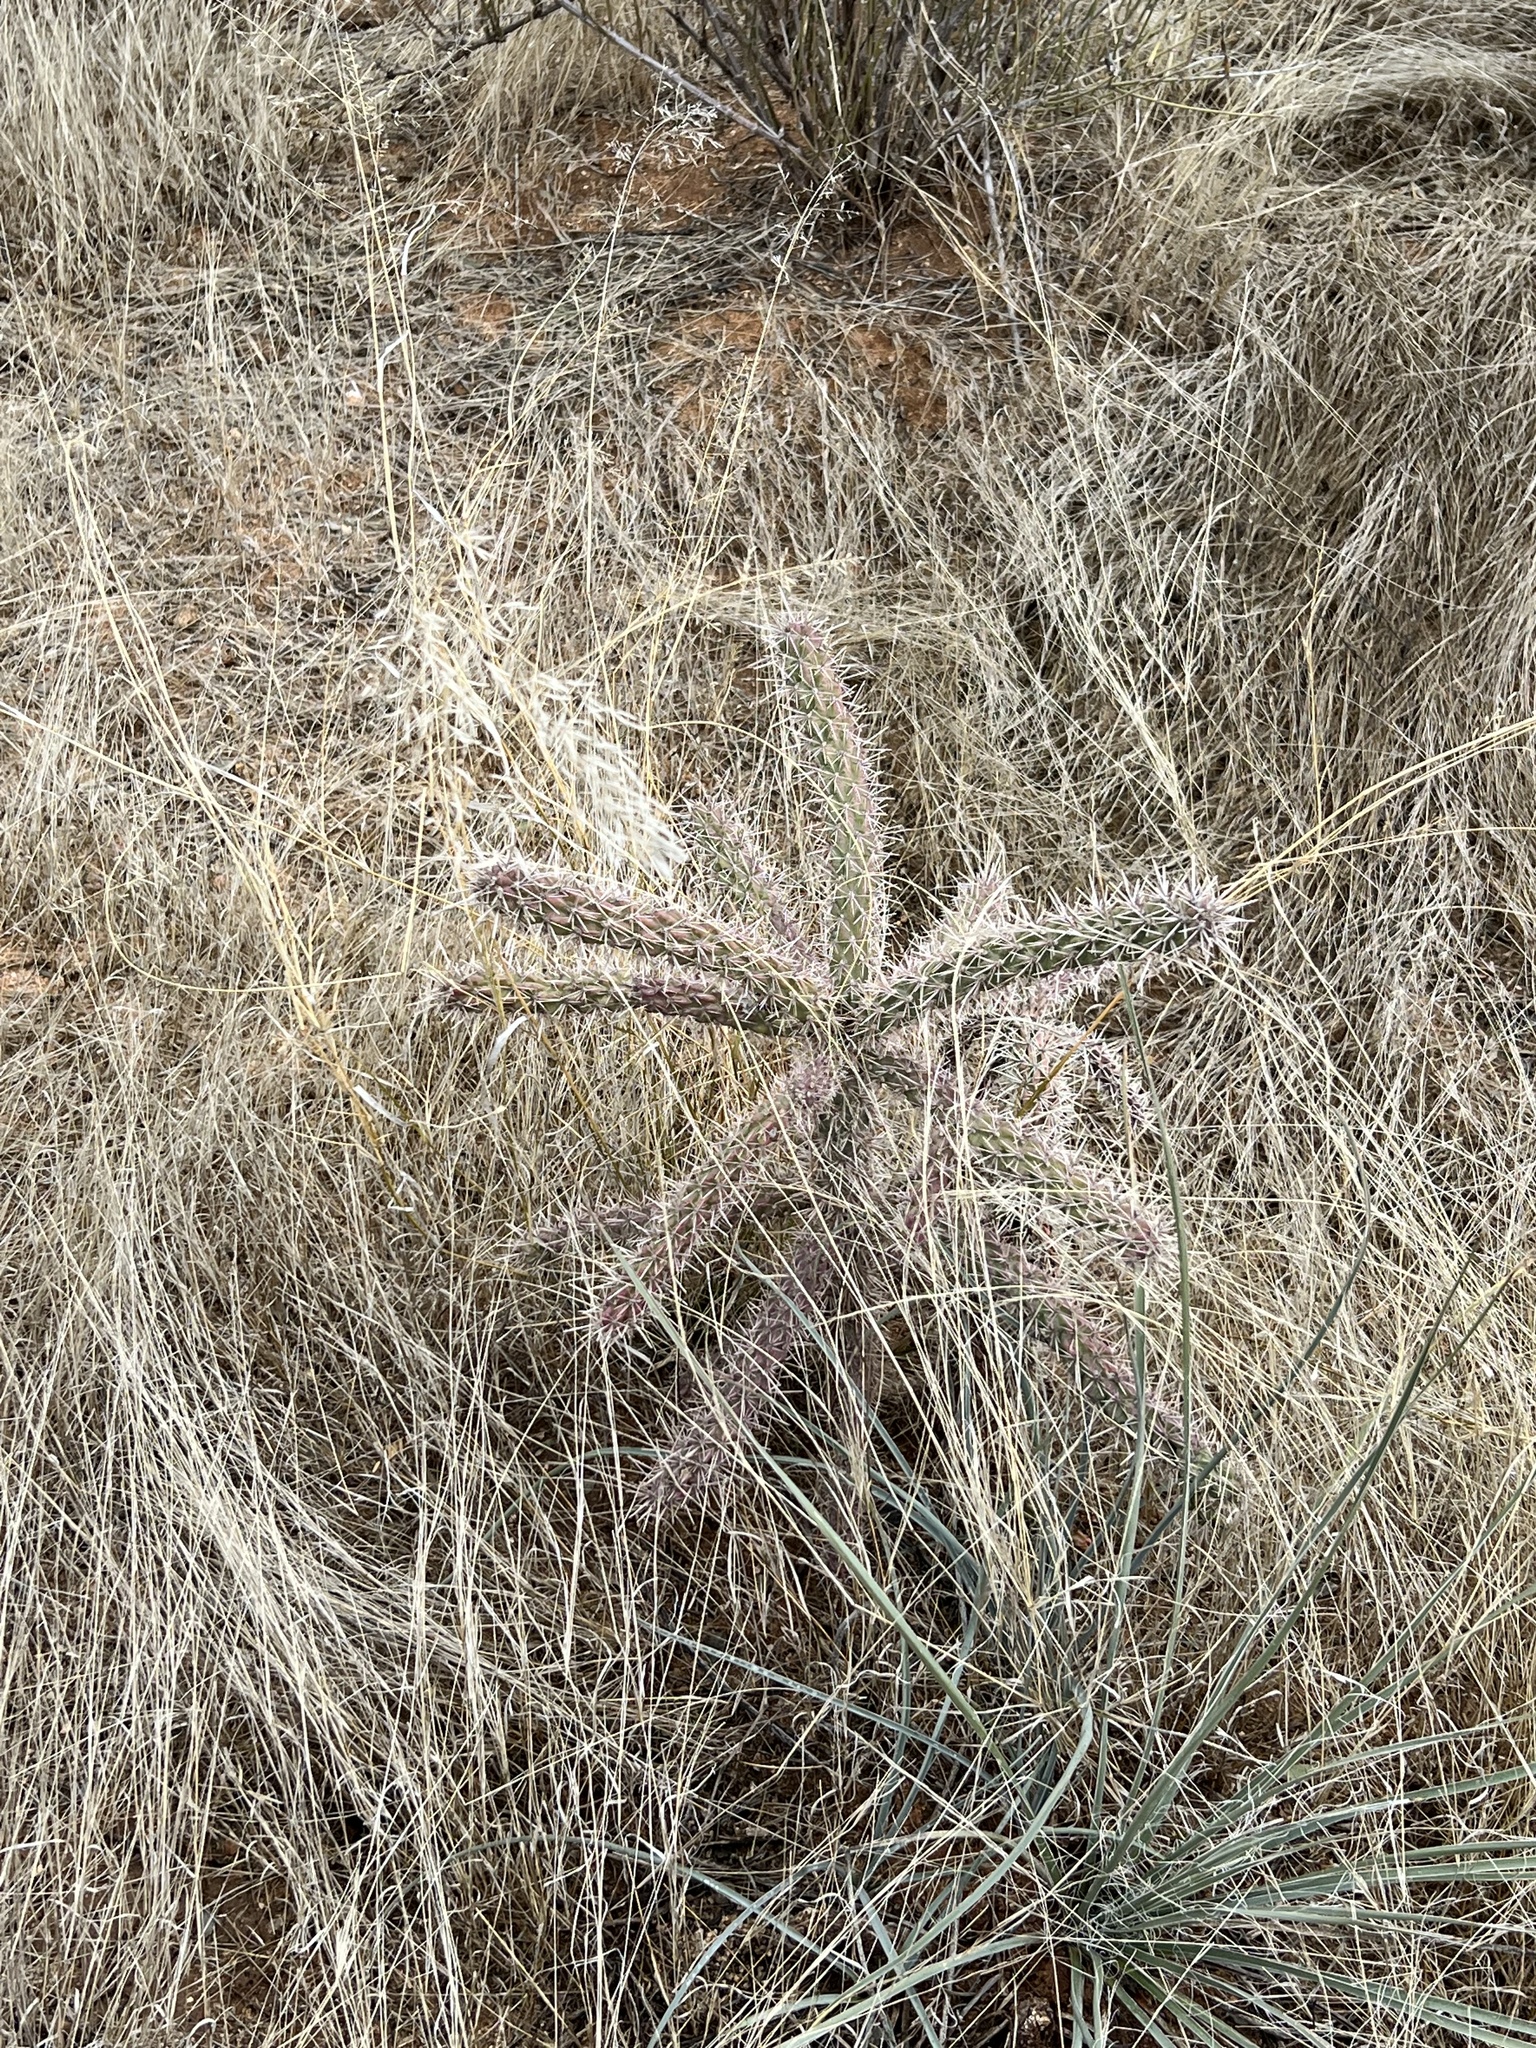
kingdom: Plantae
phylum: Tracheophyta
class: Magnoliopsida
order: Caryophyllales
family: Cactaceae
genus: Cylindropuntia
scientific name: Cylindropuntia imbricata
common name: Candelabrum cactus
